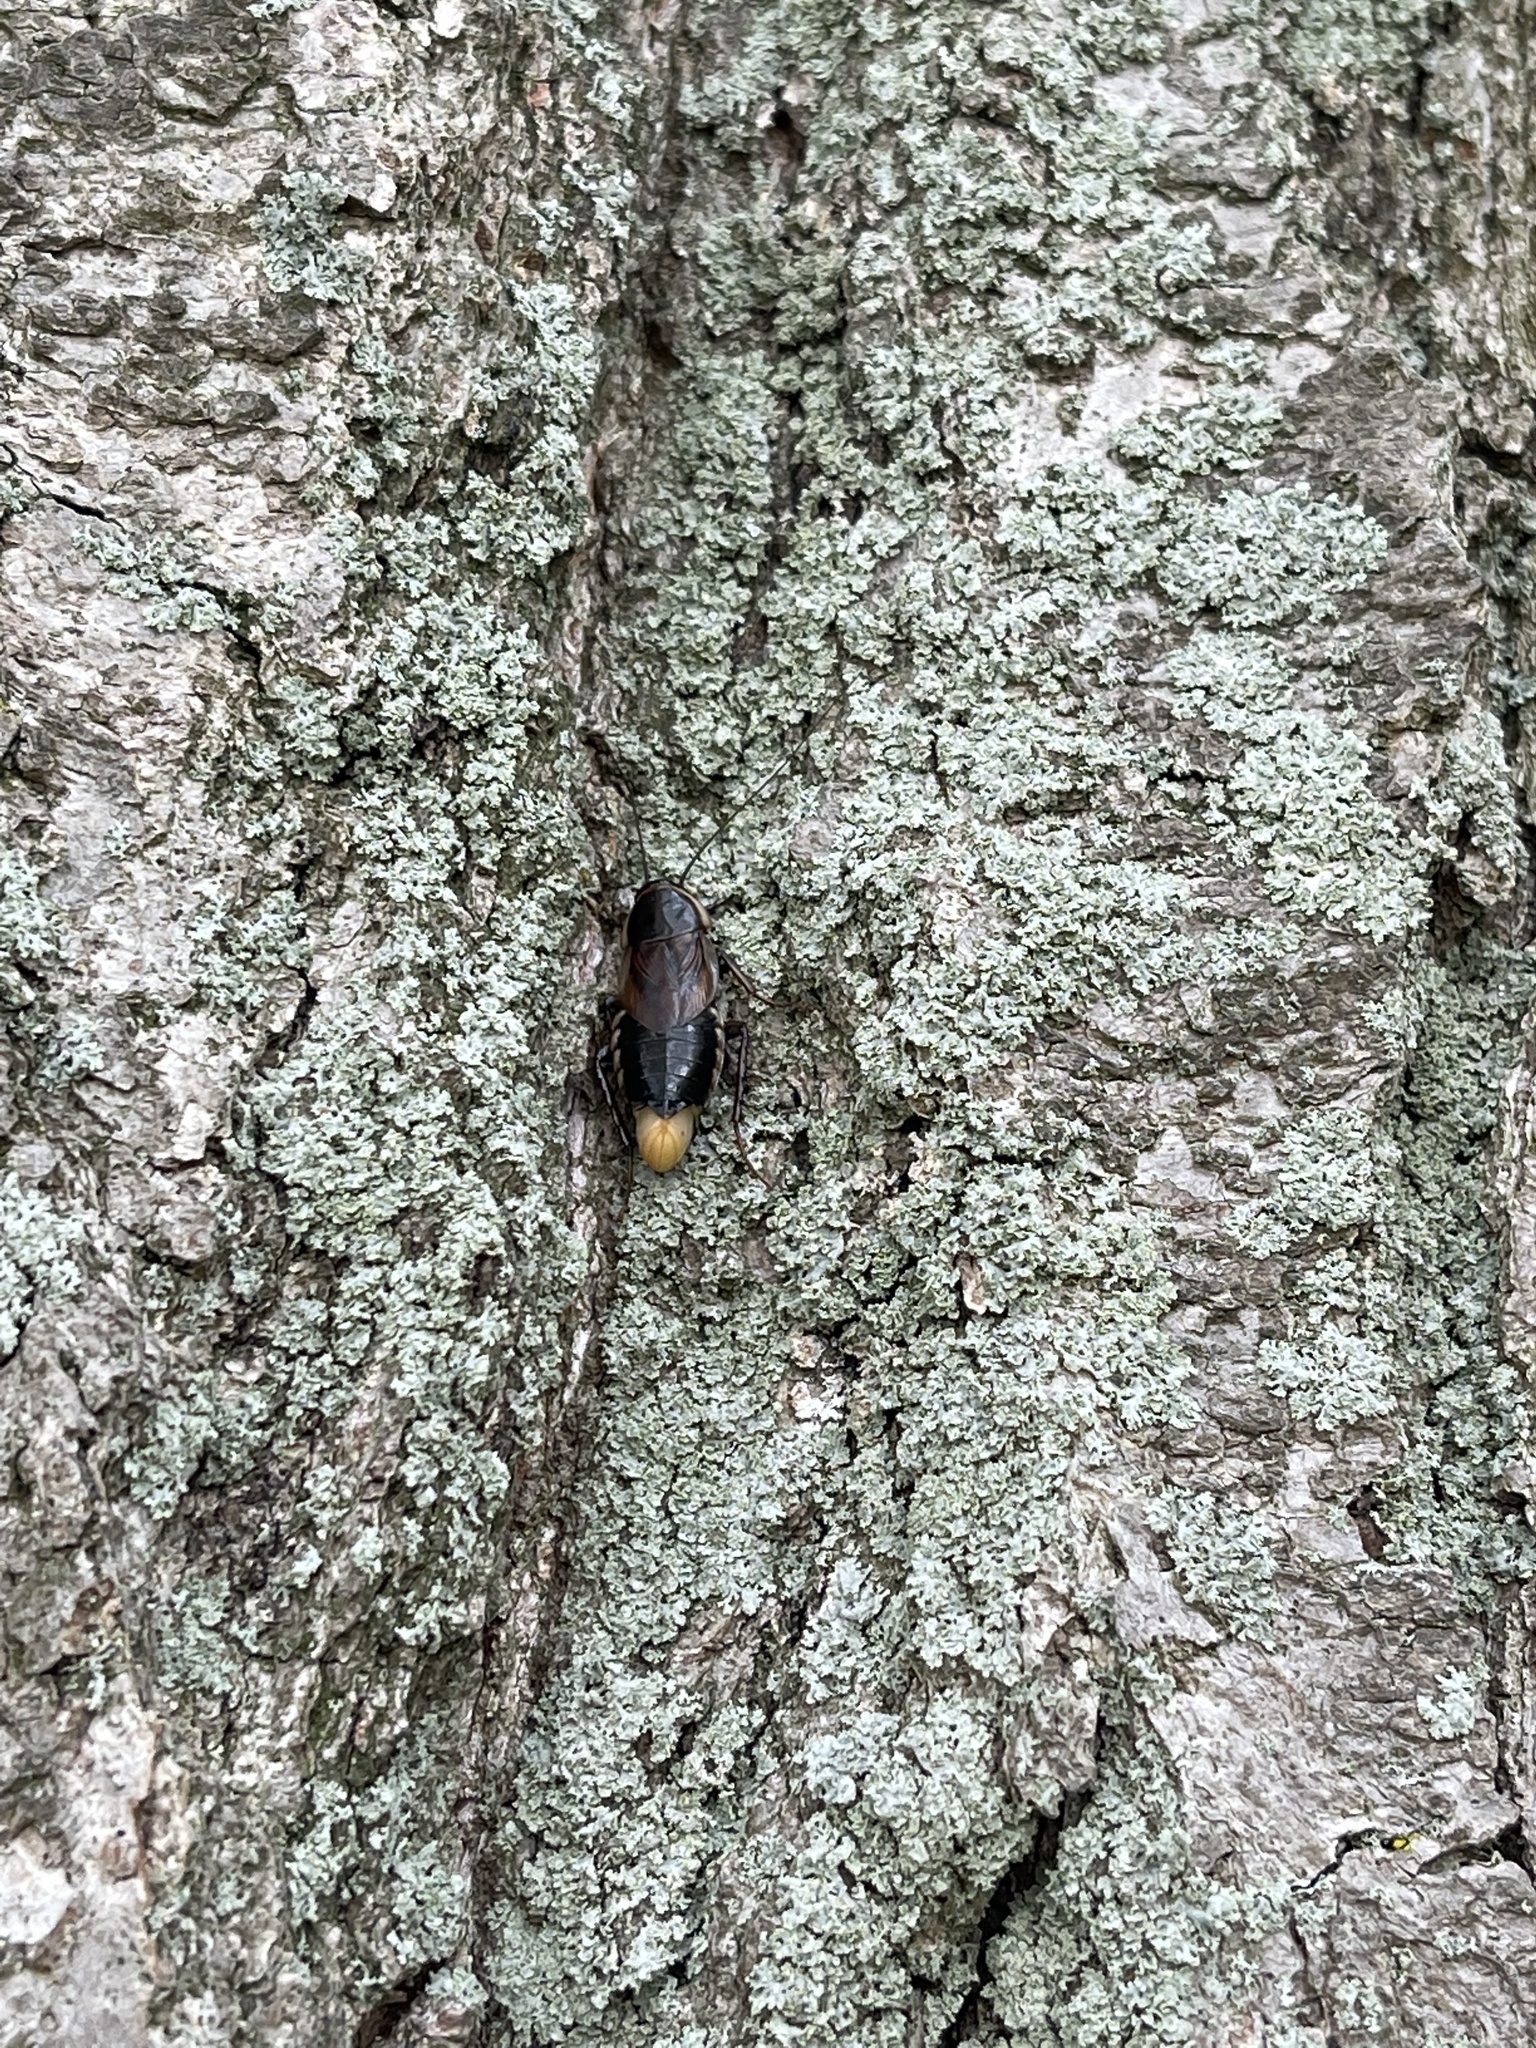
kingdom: Animalia
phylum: Arthropoda
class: Insecta
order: Blattodea
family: Ectobiidae
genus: Parcoblatta
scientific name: Parcoblatta pennsylvanica
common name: Pennsylvanian wood cockroach
